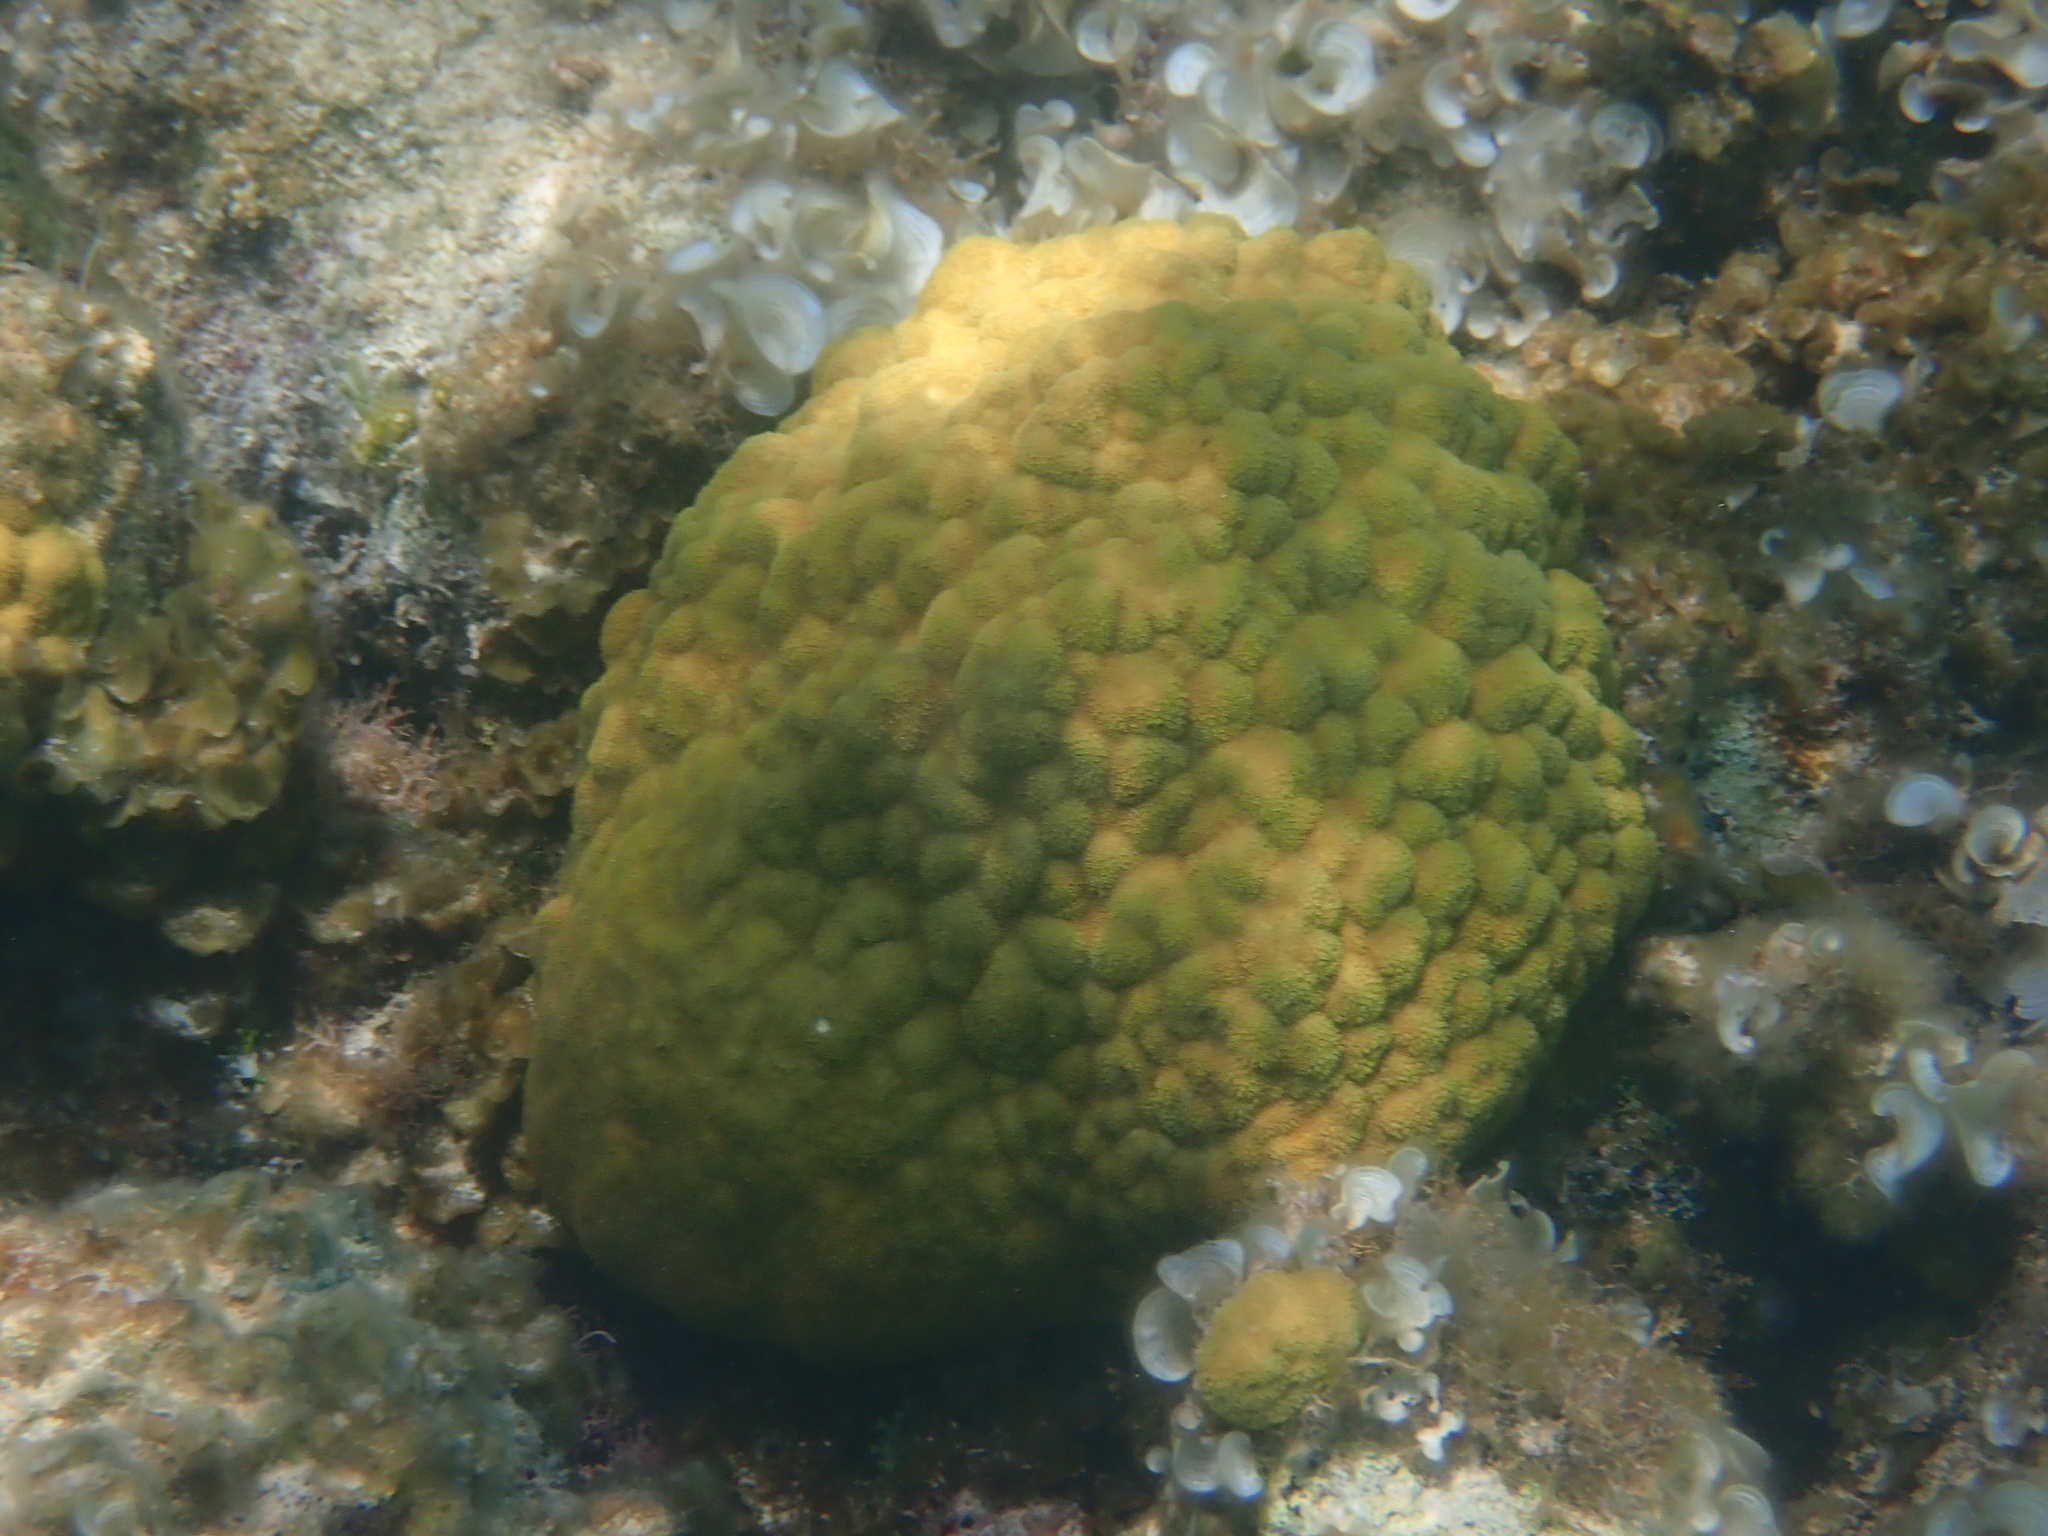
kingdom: Animalia
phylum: Cnidaria
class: Anthozoa
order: Scleractinia
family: Poritidae
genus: Porites
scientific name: Porites astreoides
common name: Mustard hill coral
